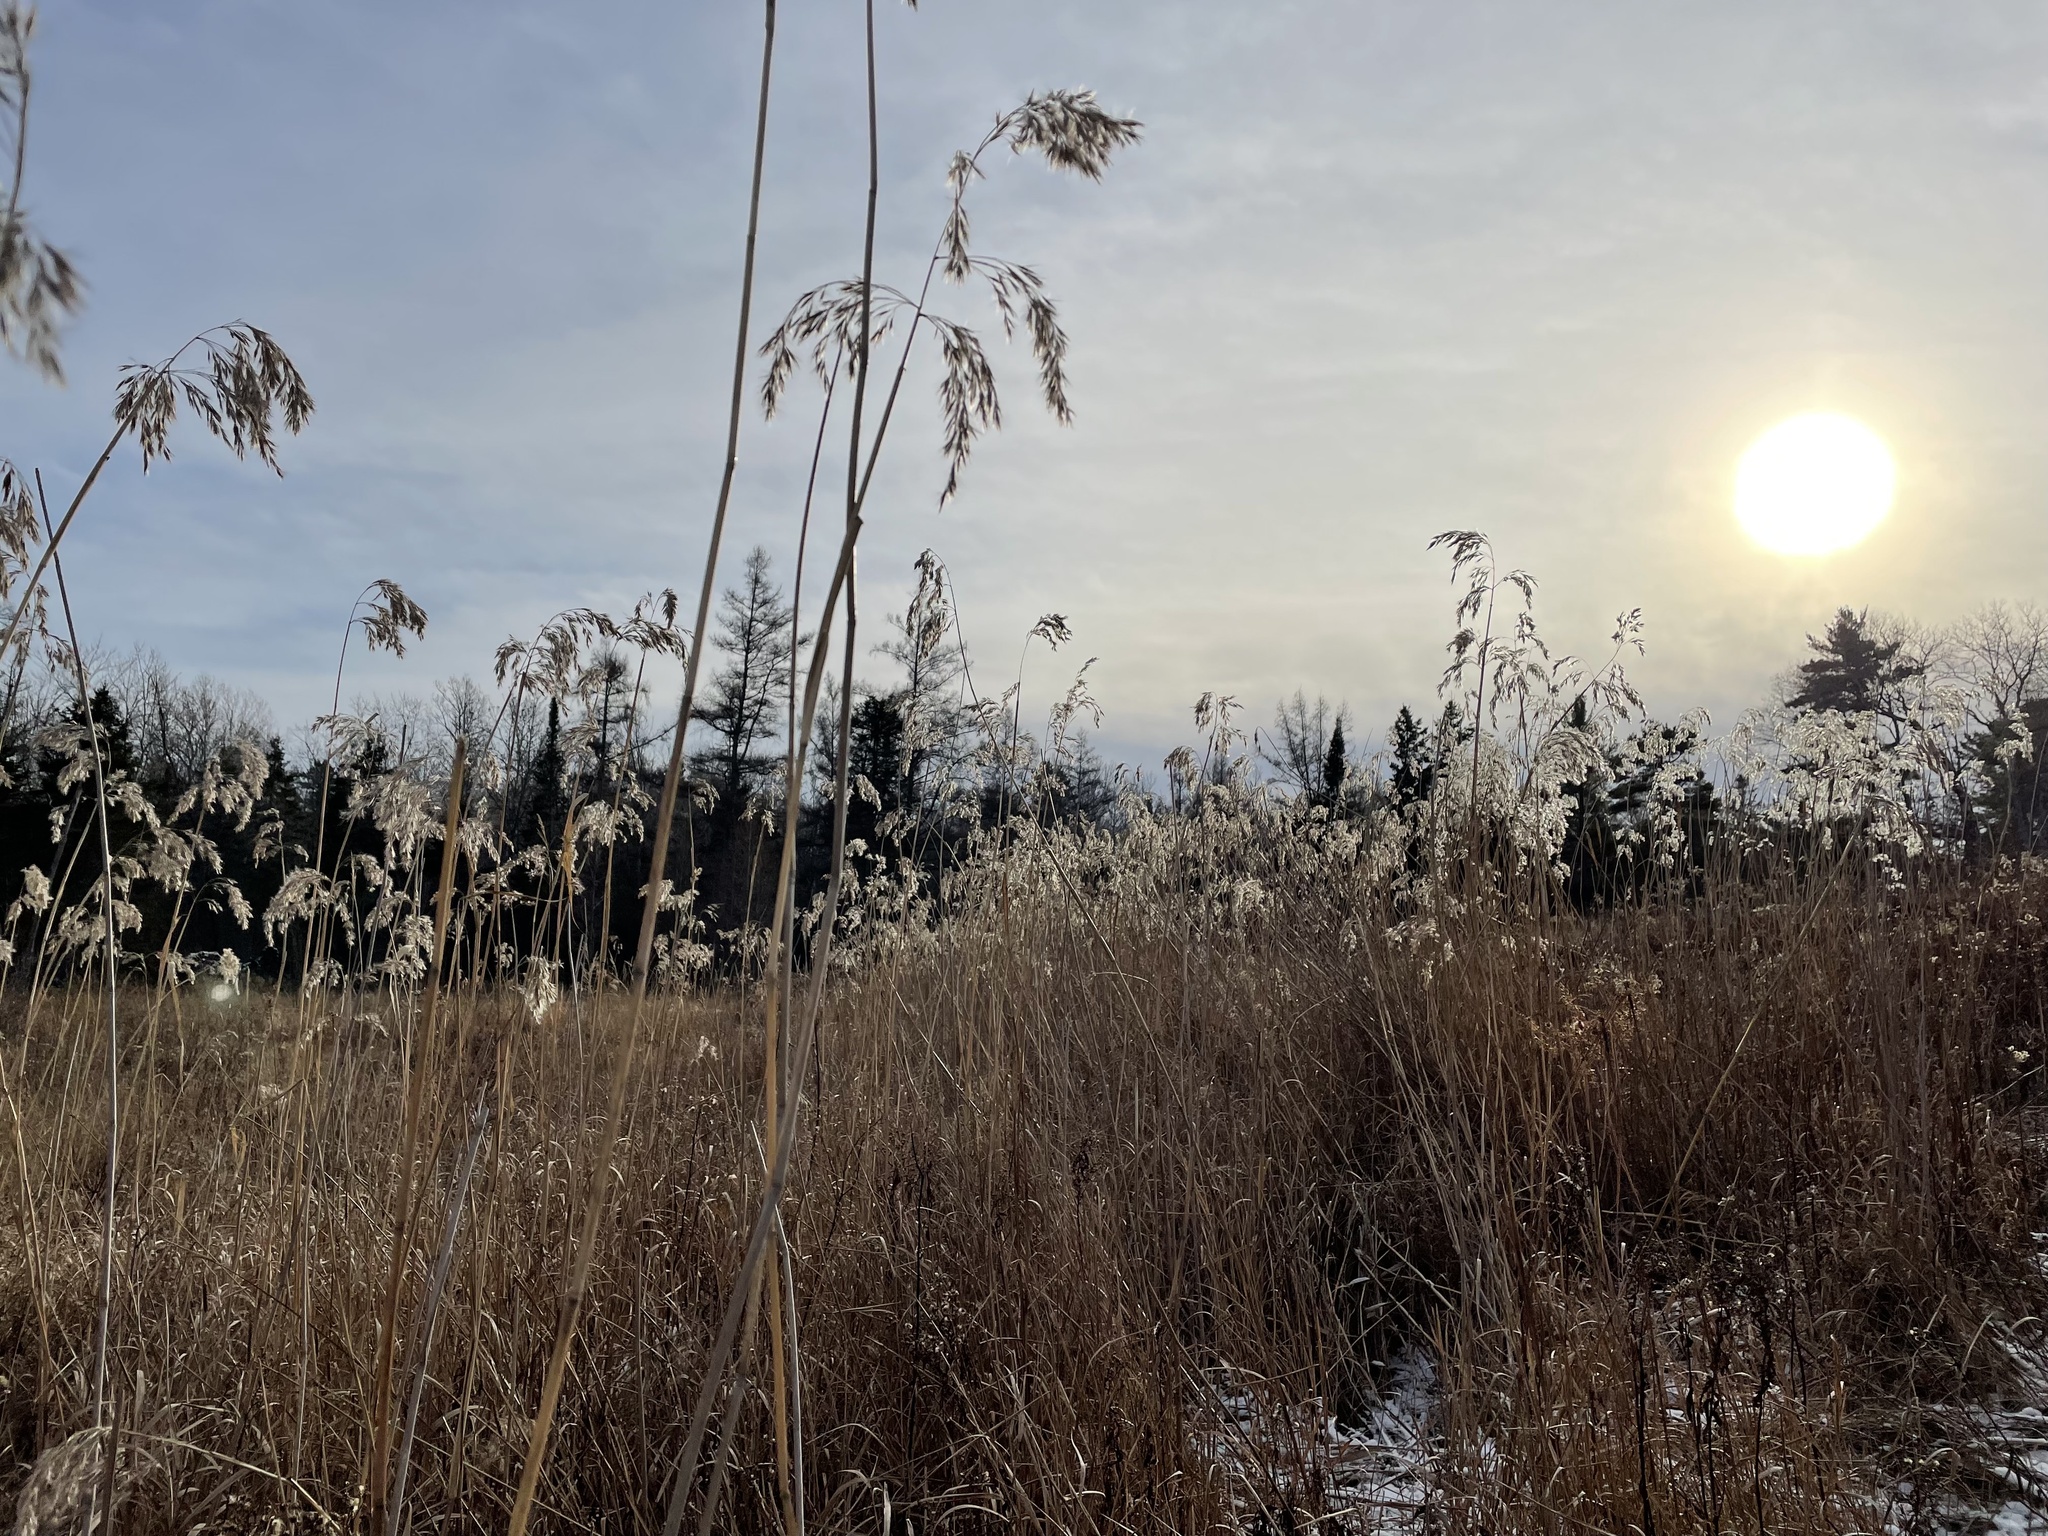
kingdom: Plantae
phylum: Tracheophyta
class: Liliopsida
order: Poales
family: Poaceae
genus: Phragmites
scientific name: Phragmites australis
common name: Common reed
